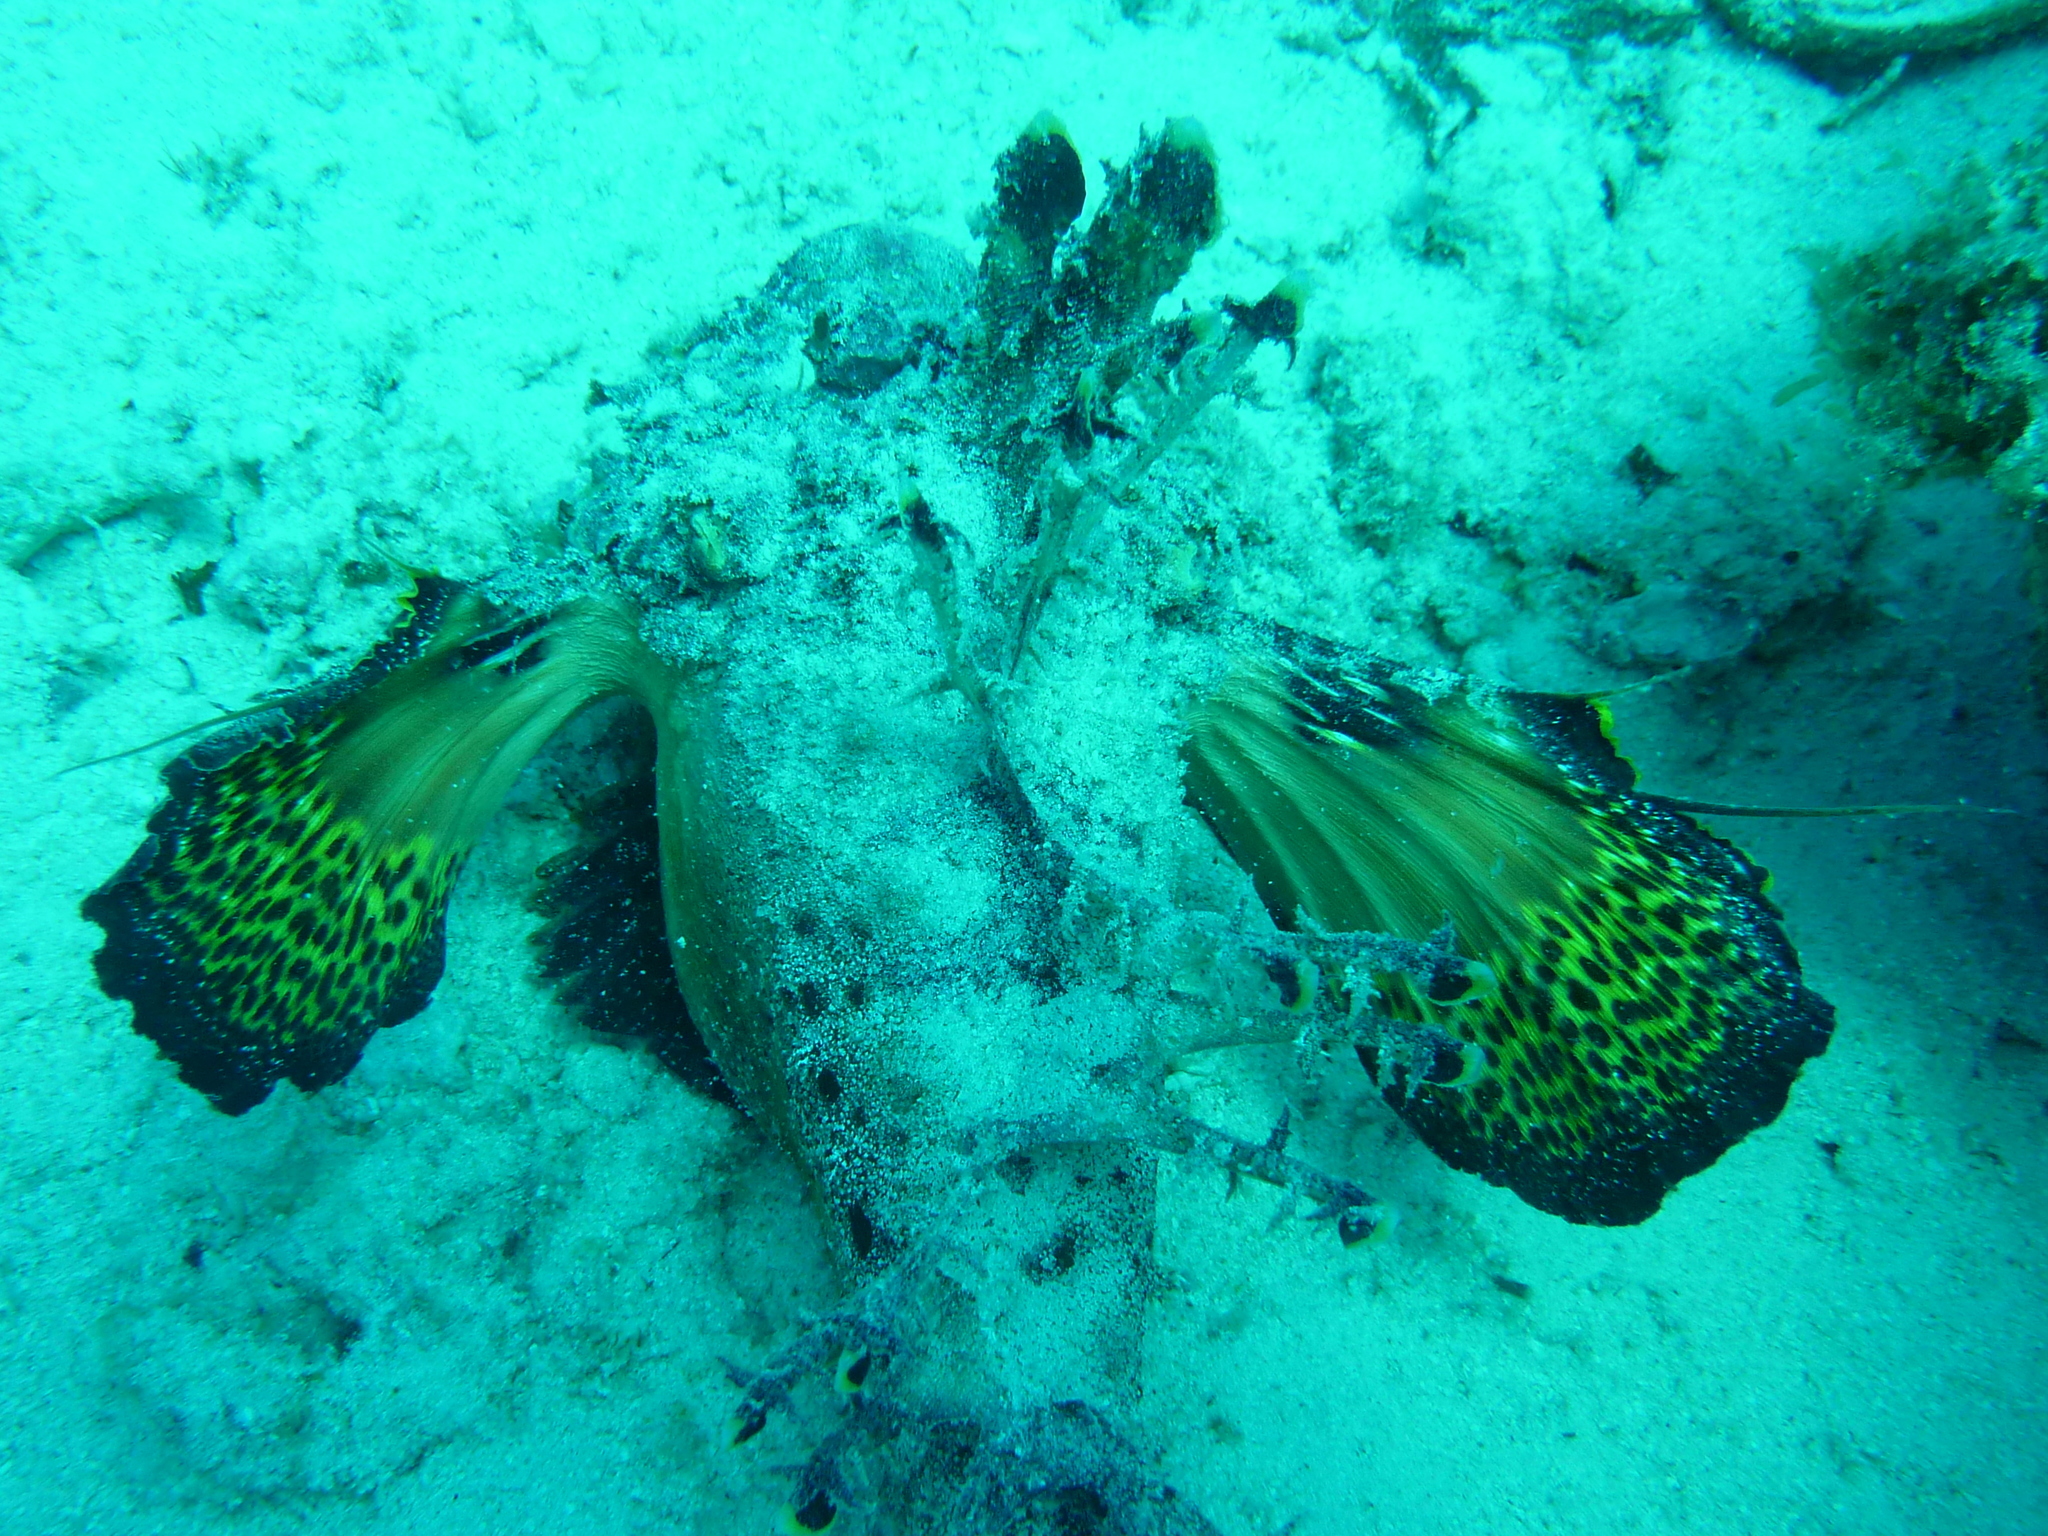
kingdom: Animalia
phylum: Chordata
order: Scorpaeniformes
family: Synanceiidae
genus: Inimicus
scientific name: Inimicus filamentosus
